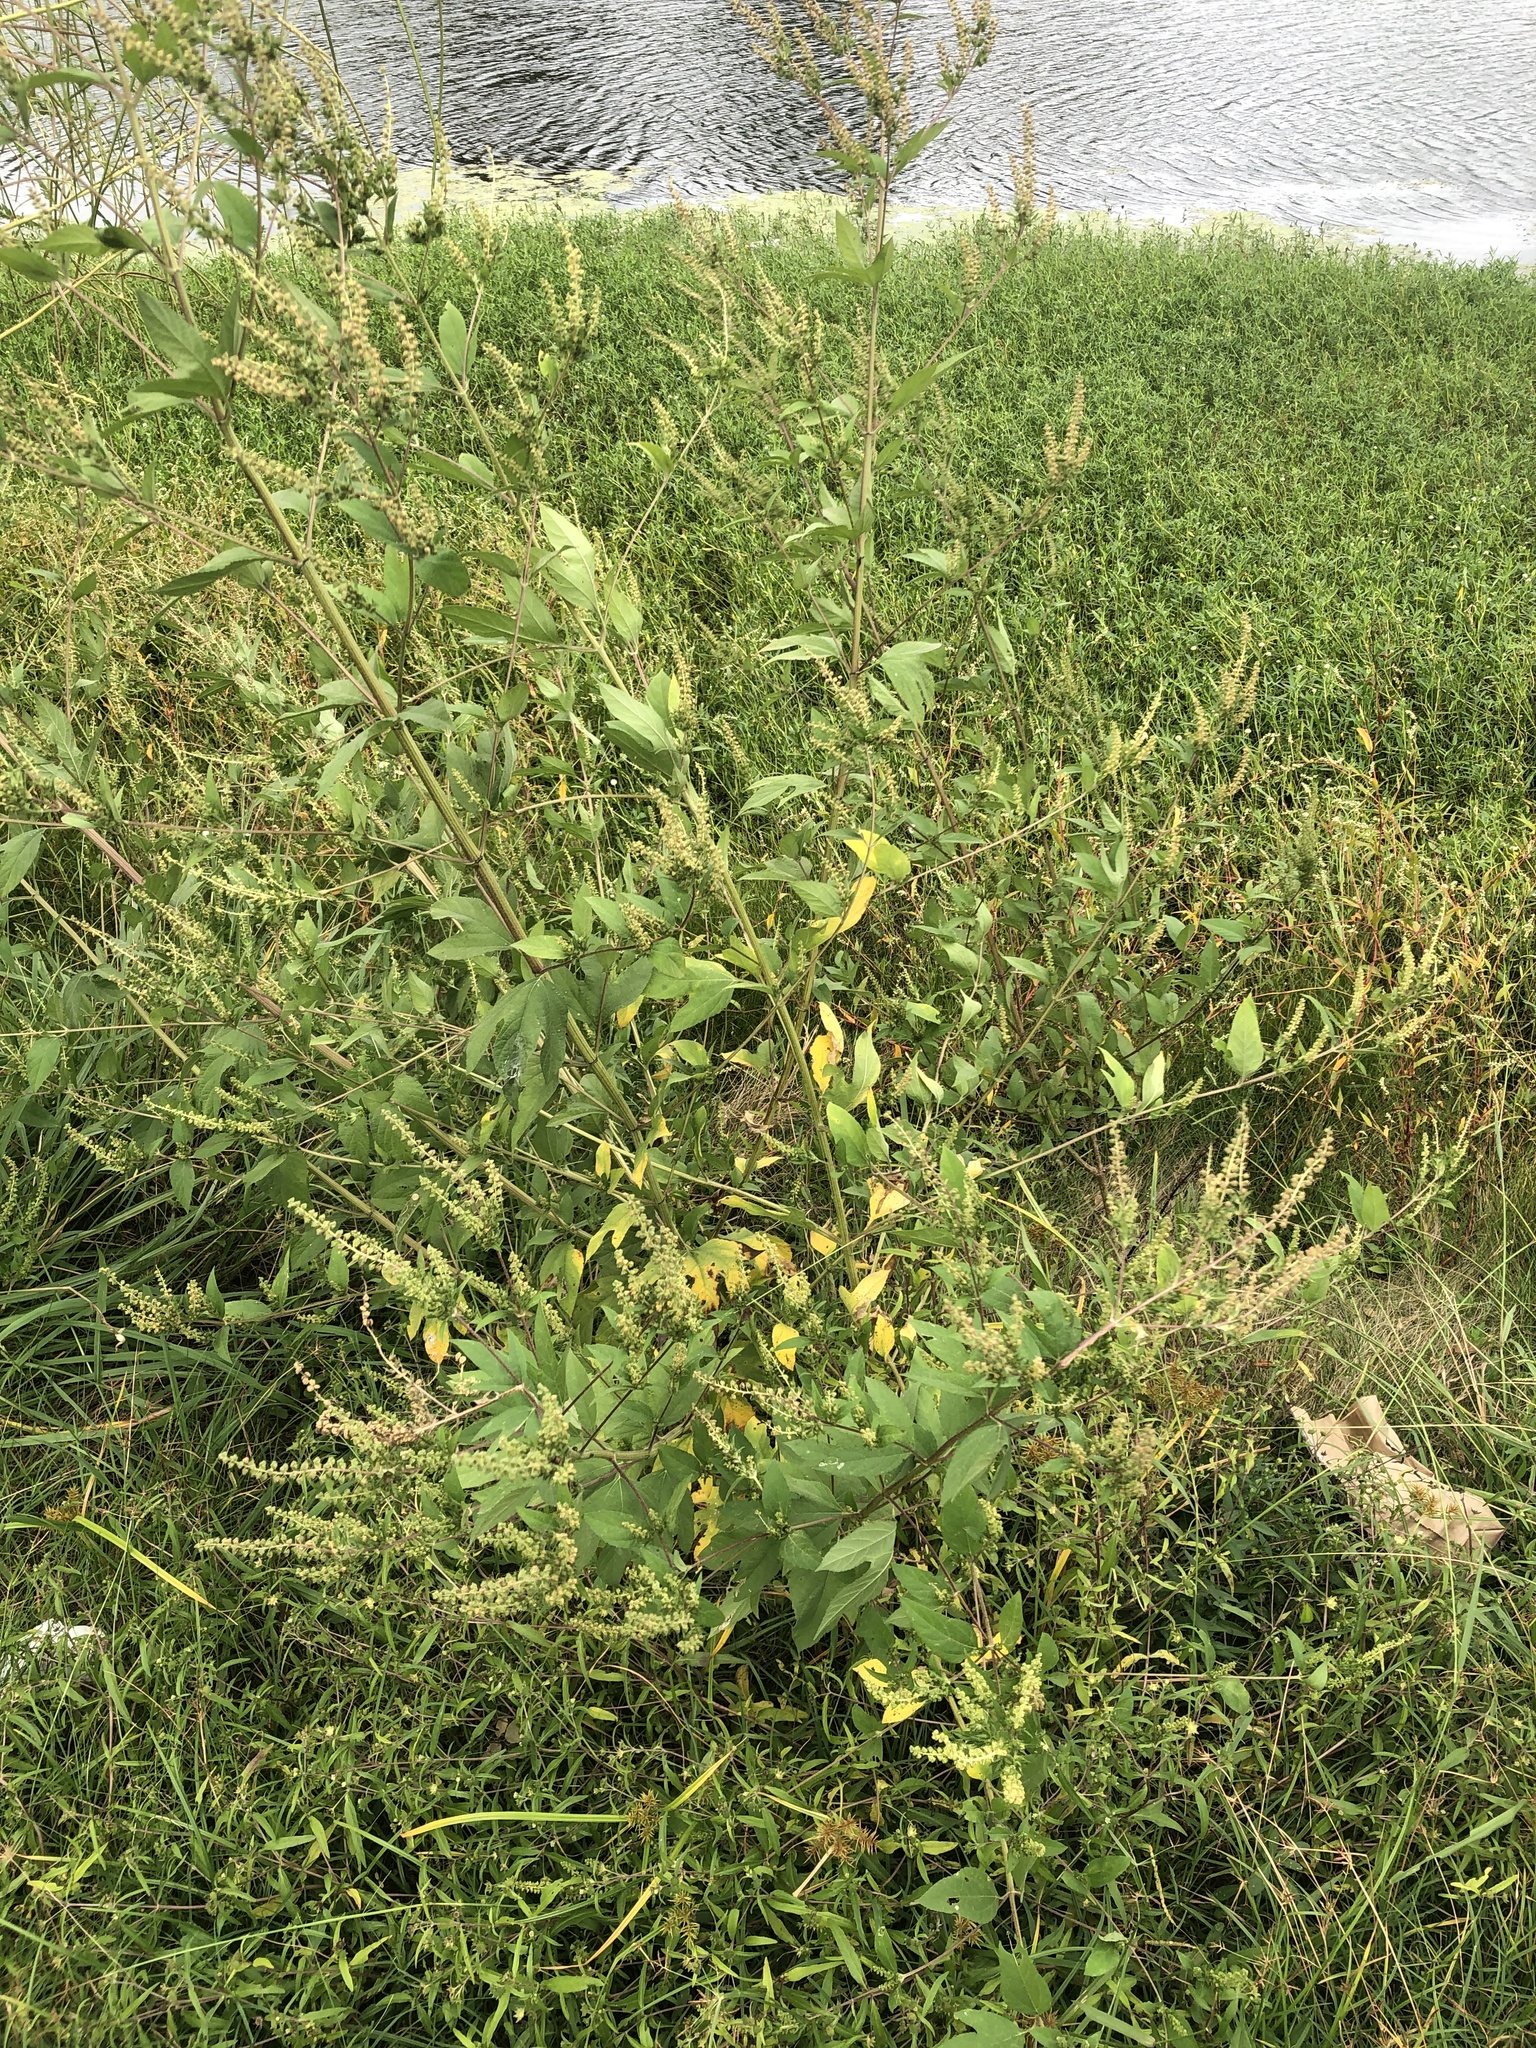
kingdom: Plantae
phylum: Tracheophyta
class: Magnoliopsida
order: Asterales
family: Asteraceae
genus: Ambrosia
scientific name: Ambrosia trifida
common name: Giant ragweed
